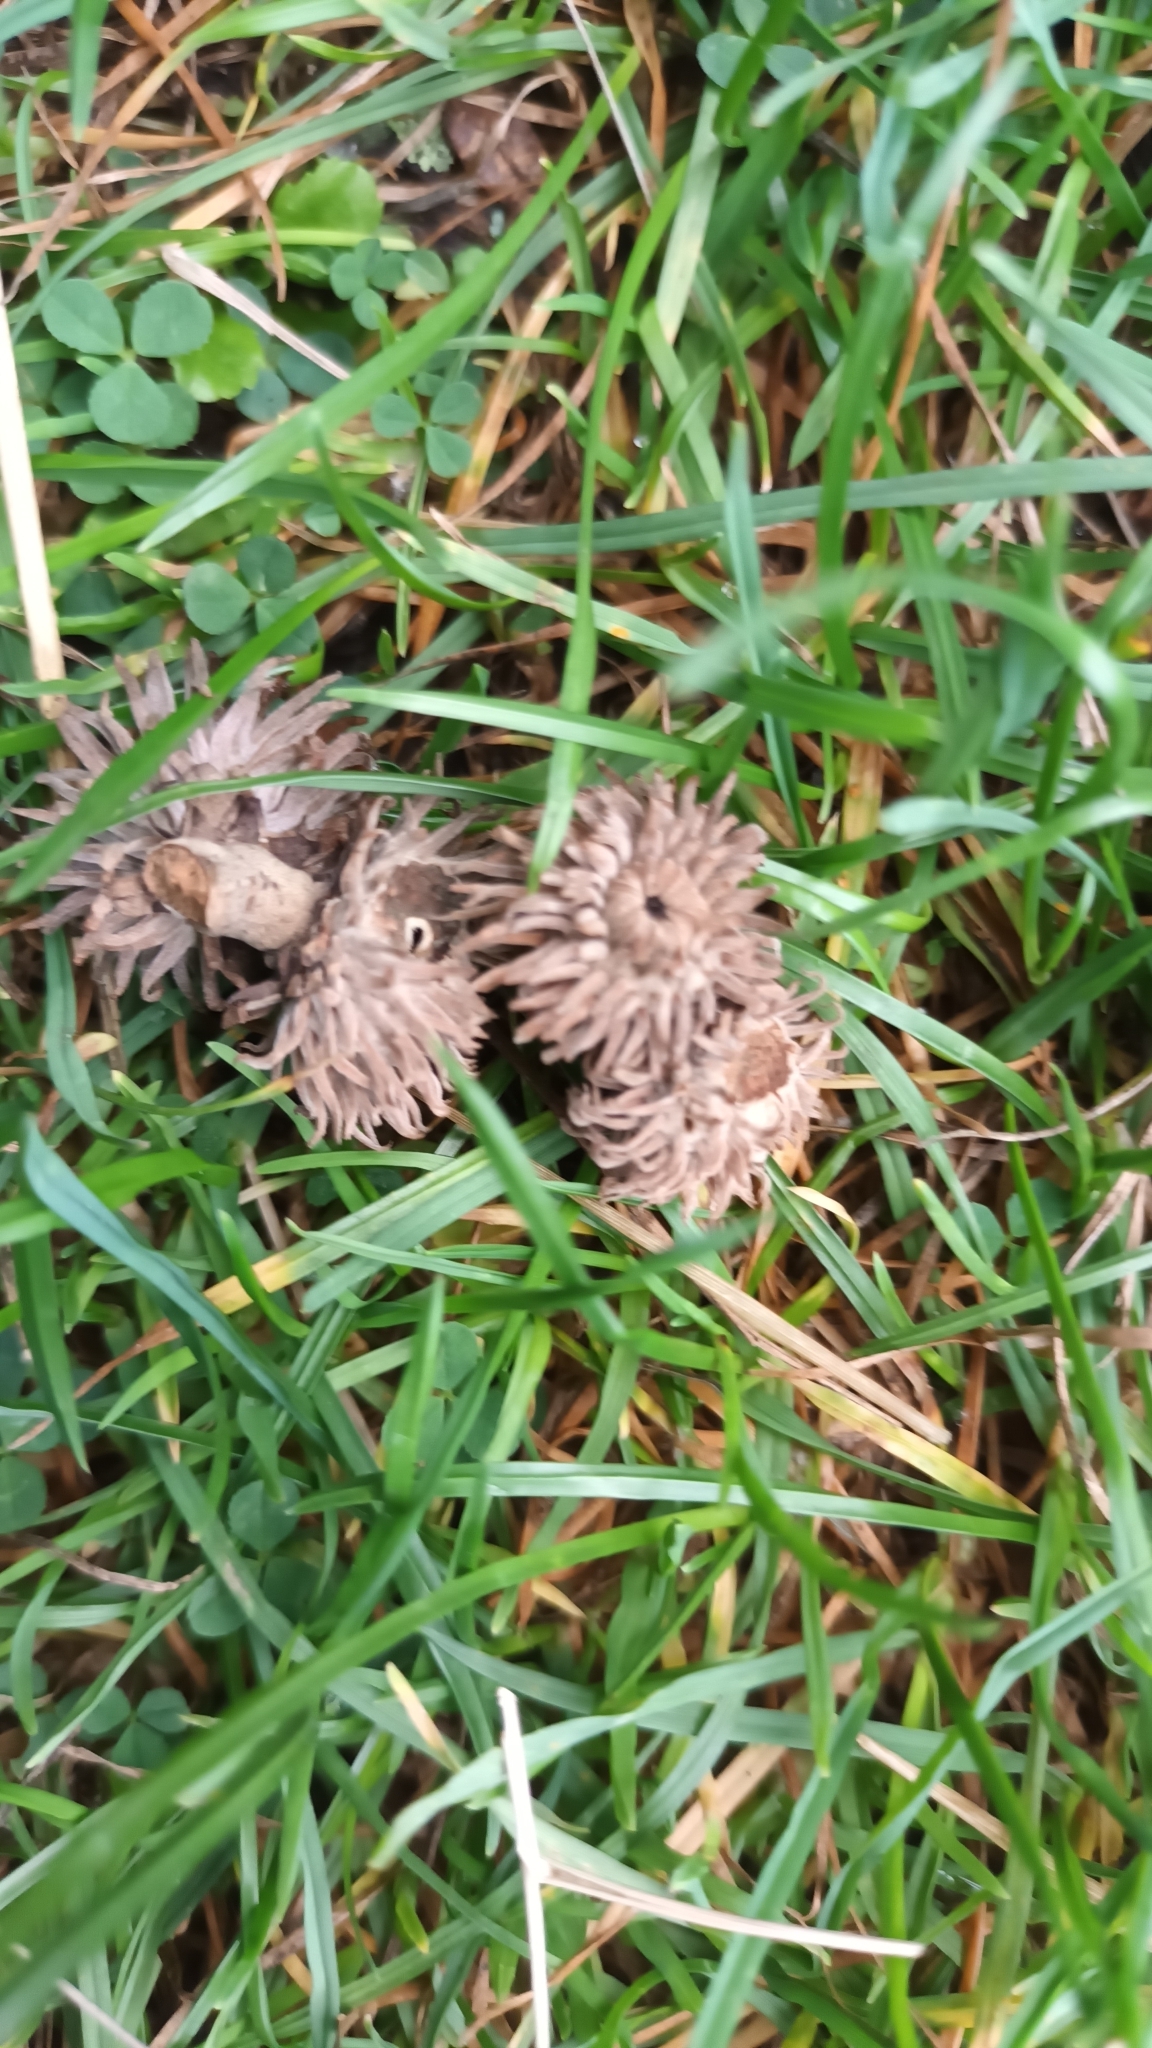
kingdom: Plantae
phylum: Tracheophyta
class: Magnoliopsida
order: Fagales
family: Fagaceae
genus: Quercus
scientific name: Quercus cerris
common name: Turkey oak
